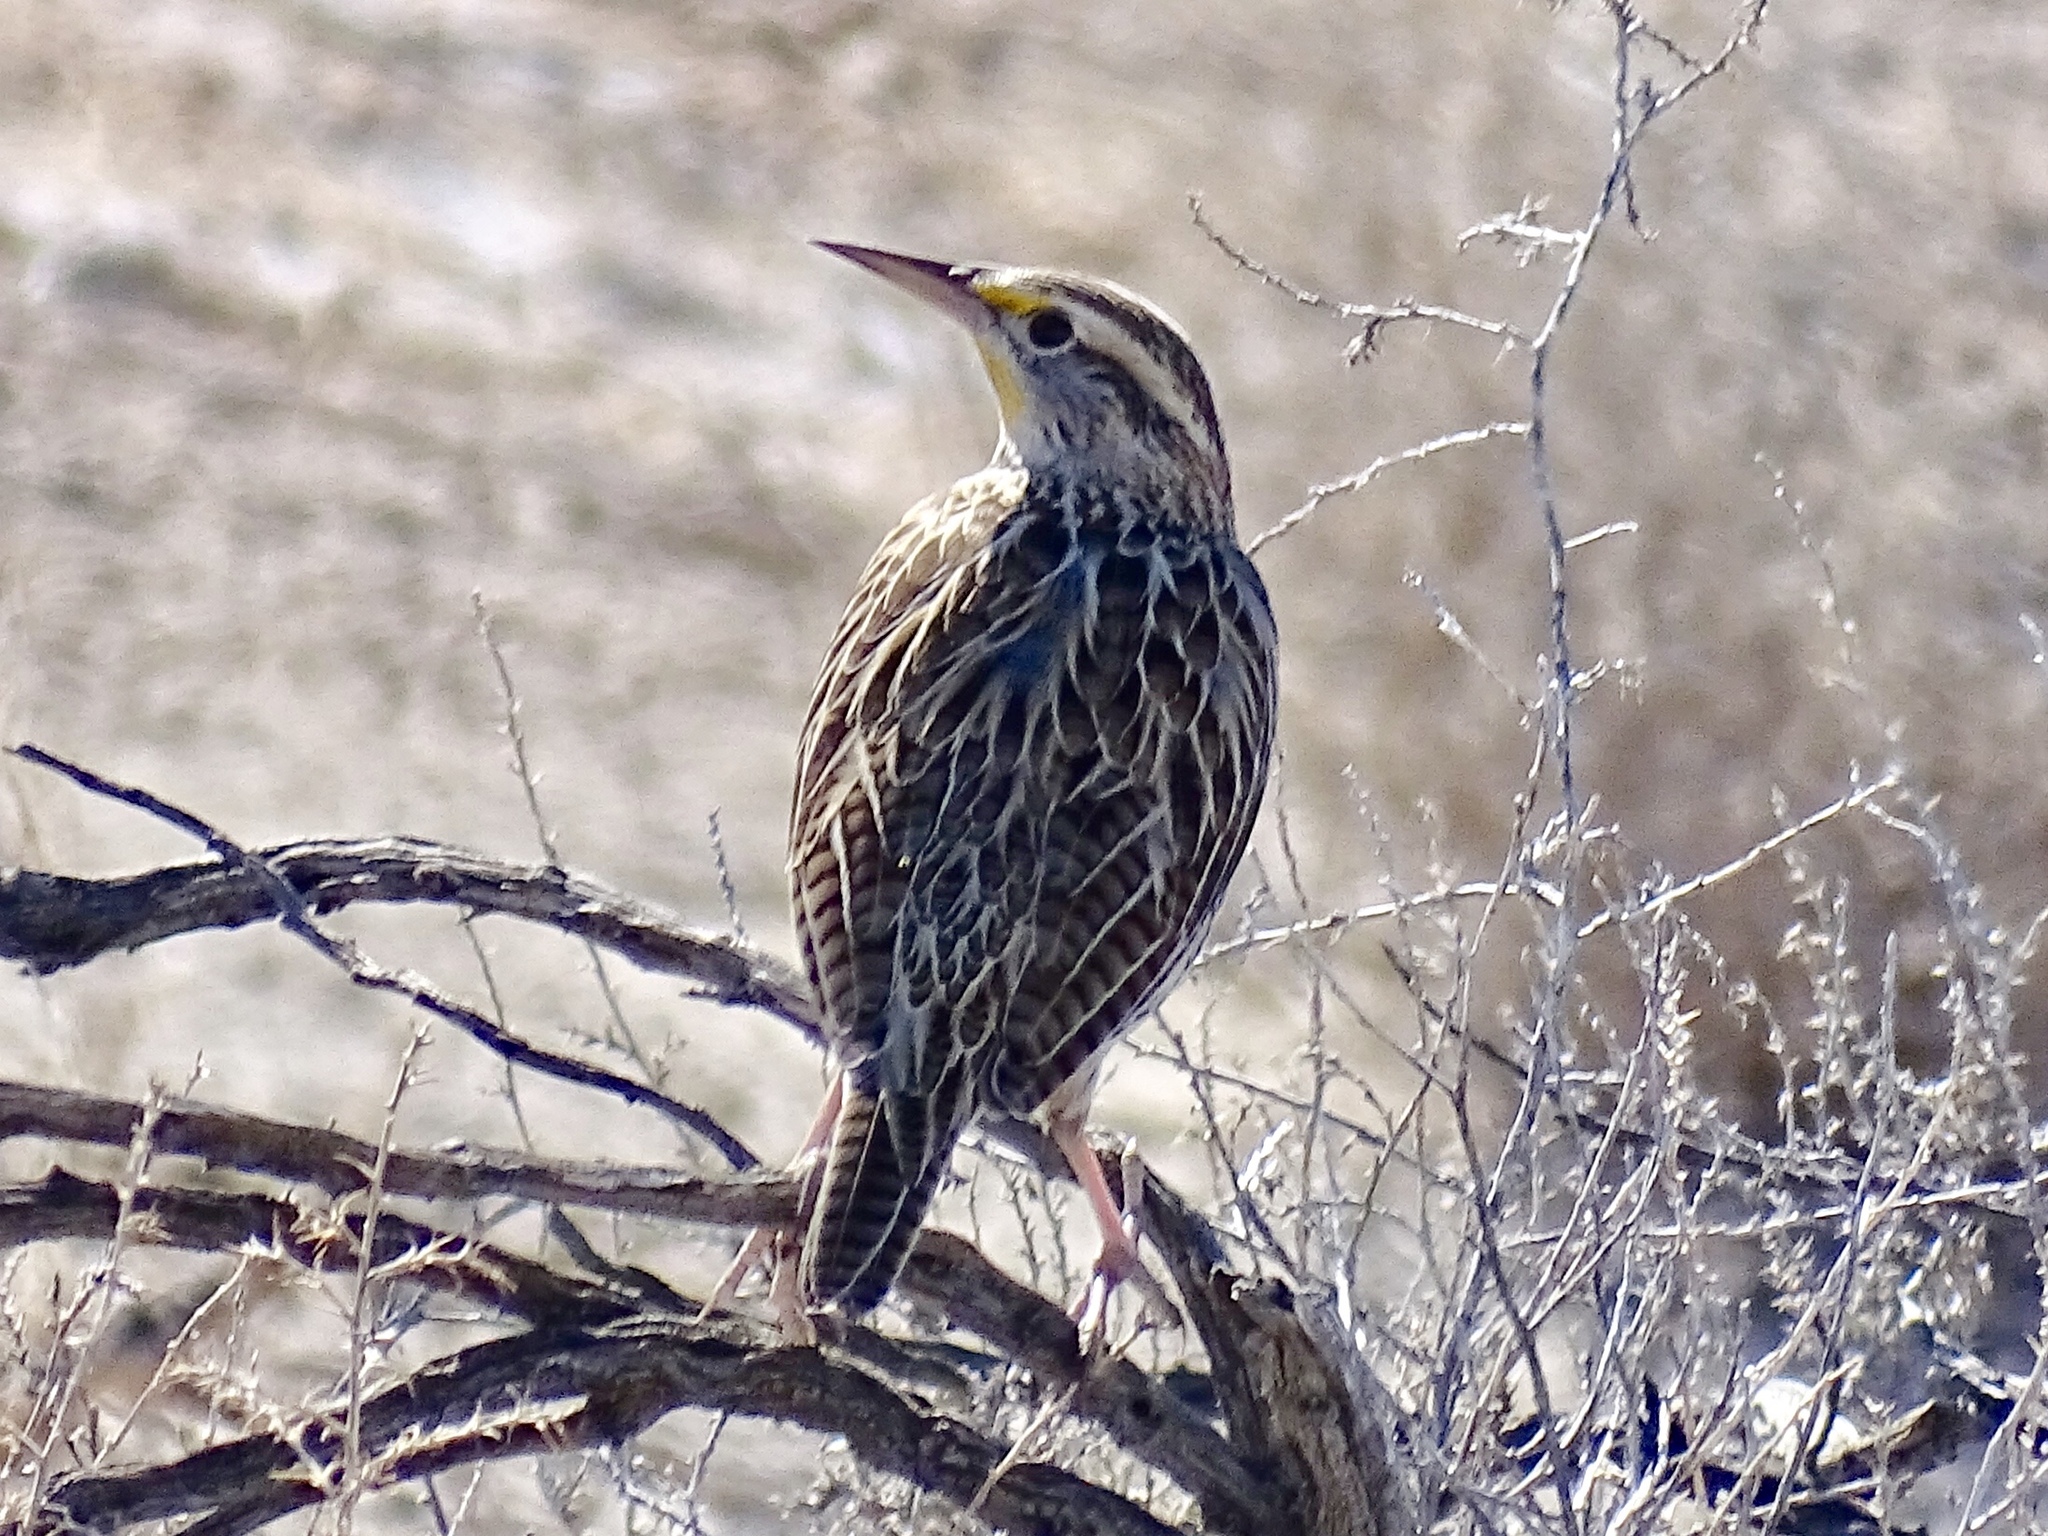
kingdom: Animalia
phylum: Chordata
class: Aves
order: Passeriformes
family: Icteridae
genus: Sturnella
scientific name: Sturnella neglecta
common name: Western meadowlark
